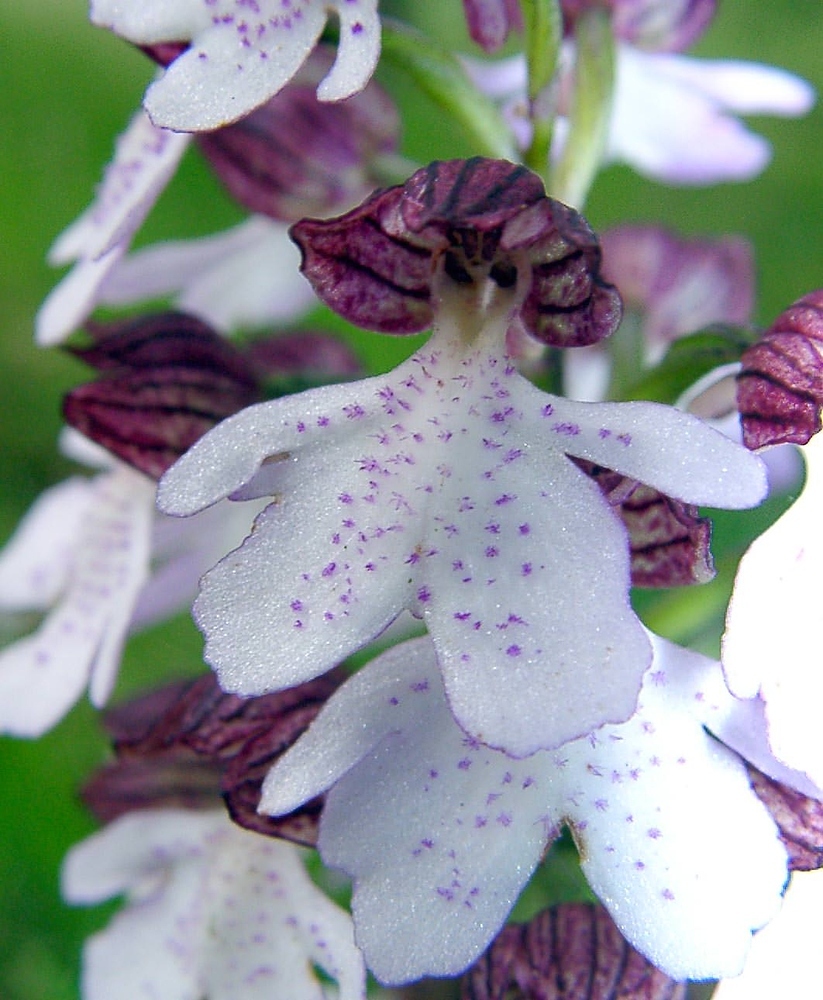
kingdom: Plantae
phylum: Tracheophyta
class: Liliopsida
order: Asparagales
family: Orchidaceae
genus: Orchis
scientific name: Orchis purpurea
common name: Lady orchid
